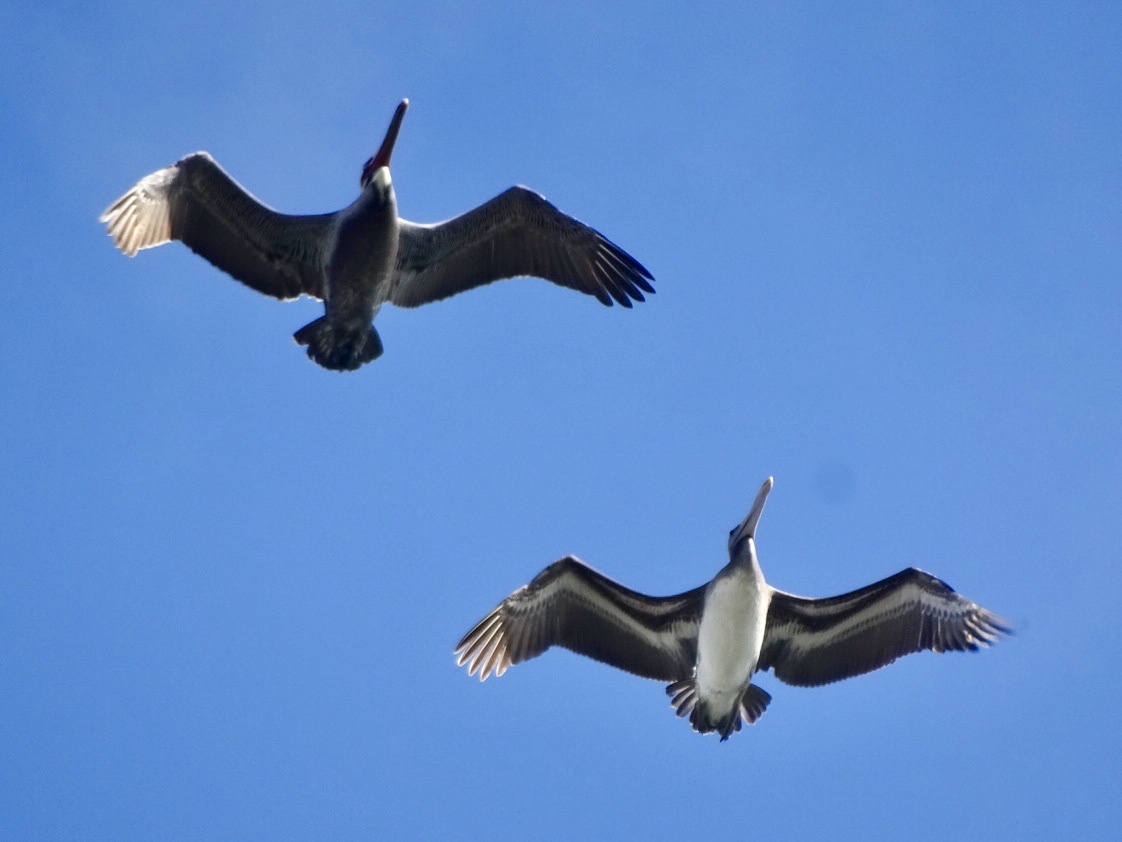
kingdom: Animalia
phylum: Chordata
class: Aves
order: Pelecaniformes
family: Pelecanidae
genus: Pelecanus
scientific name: Pelecanus occidentalis
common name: Brown pelican
